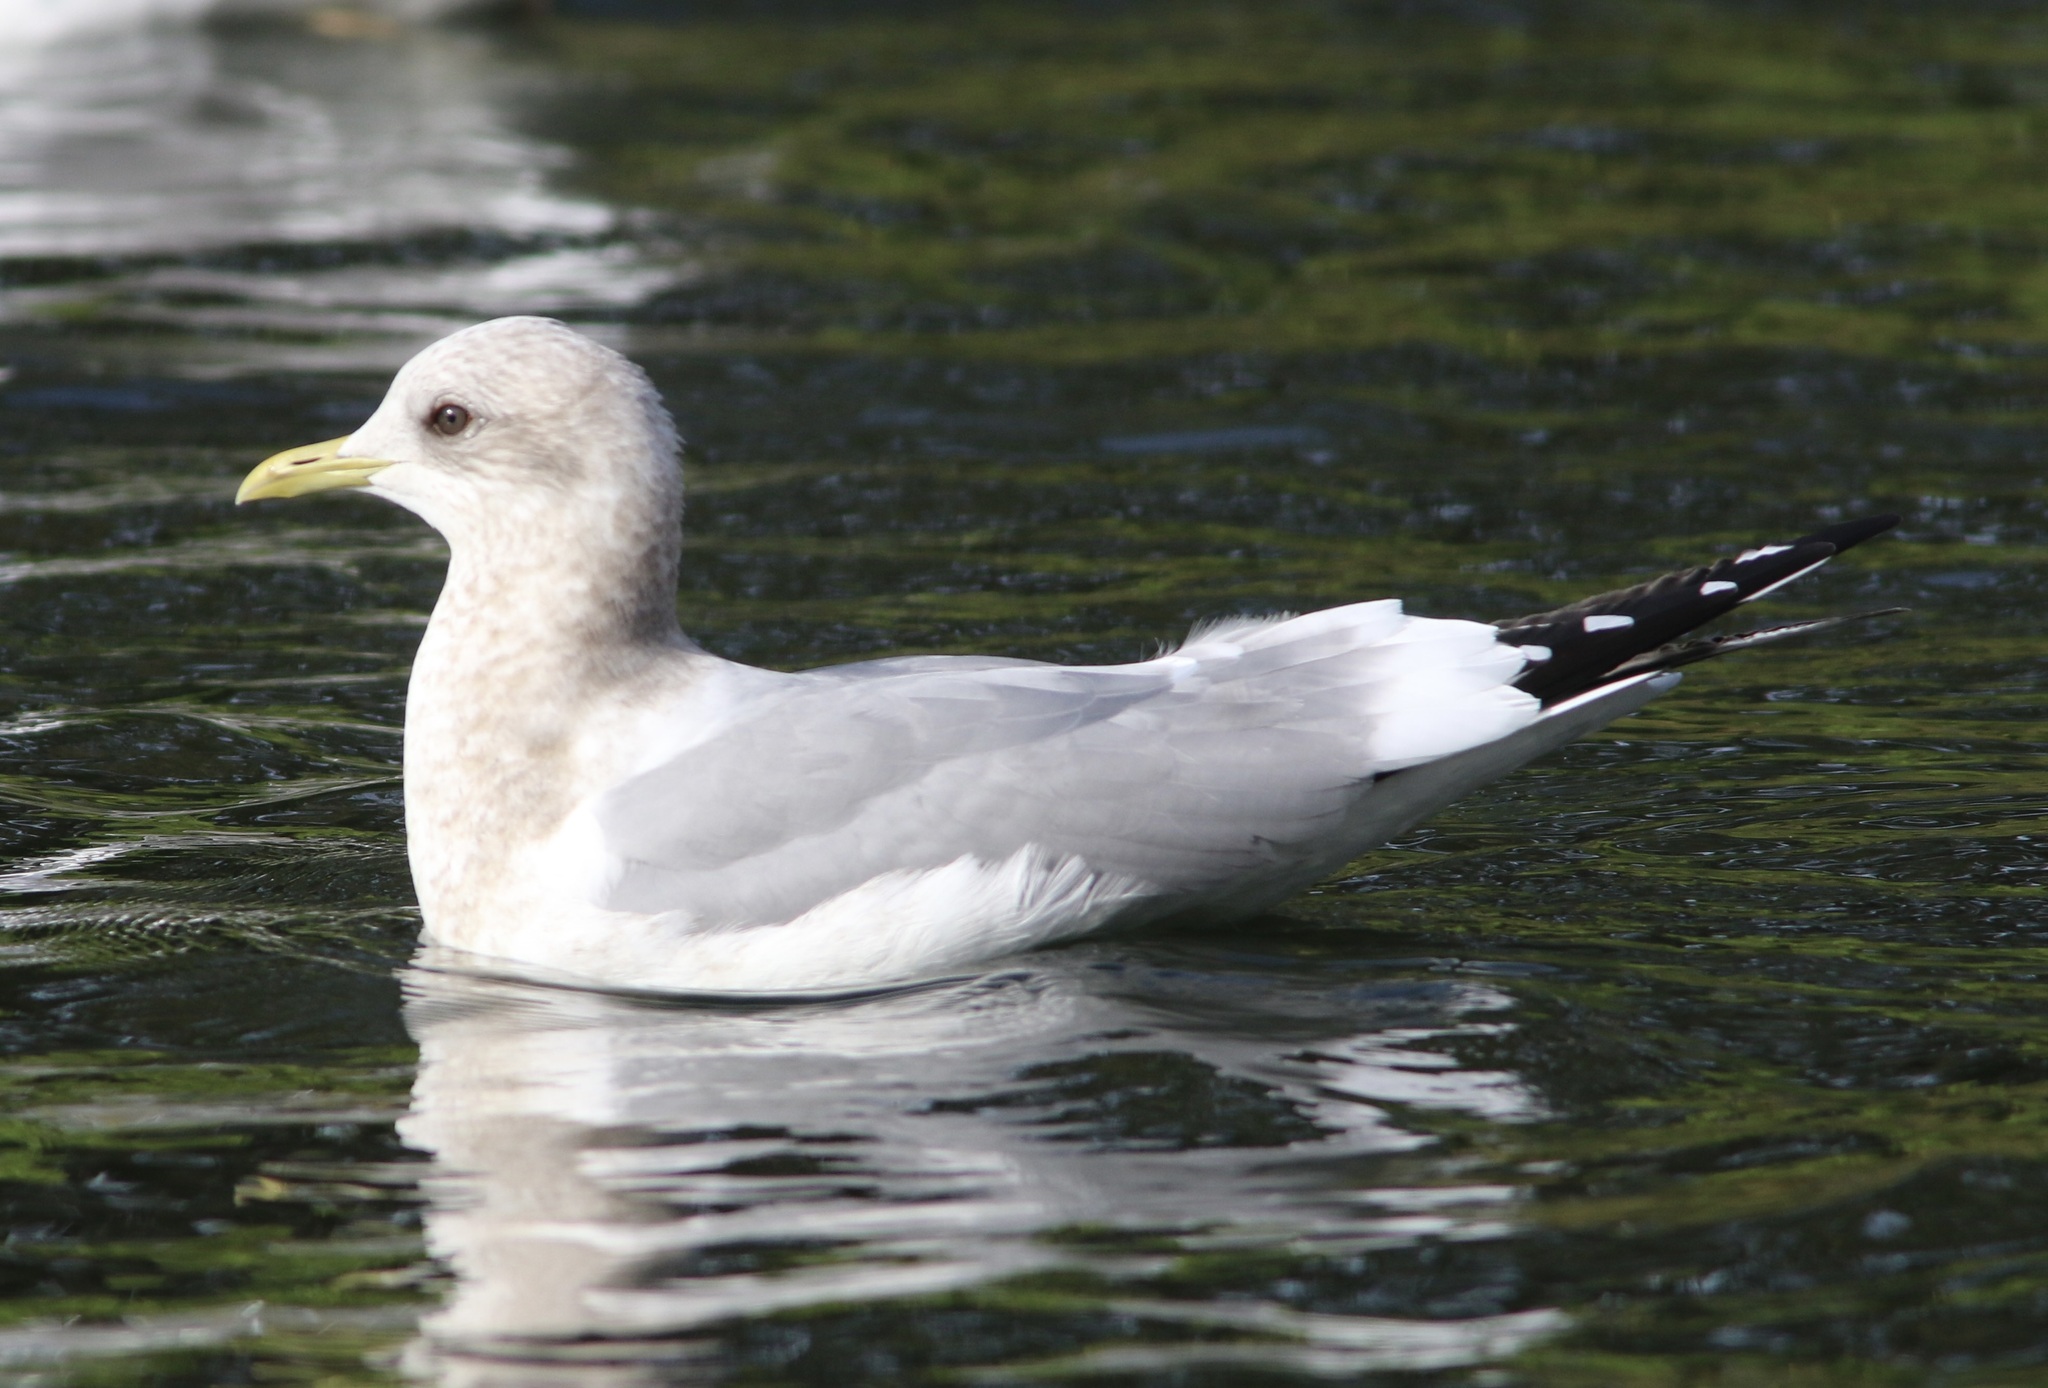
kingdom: Animalia
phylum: Chordata
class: Aves
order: Charadriiformes
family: Laridae
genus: Larus
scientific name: Larus brachyrhynchus
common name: Short-billed gull
